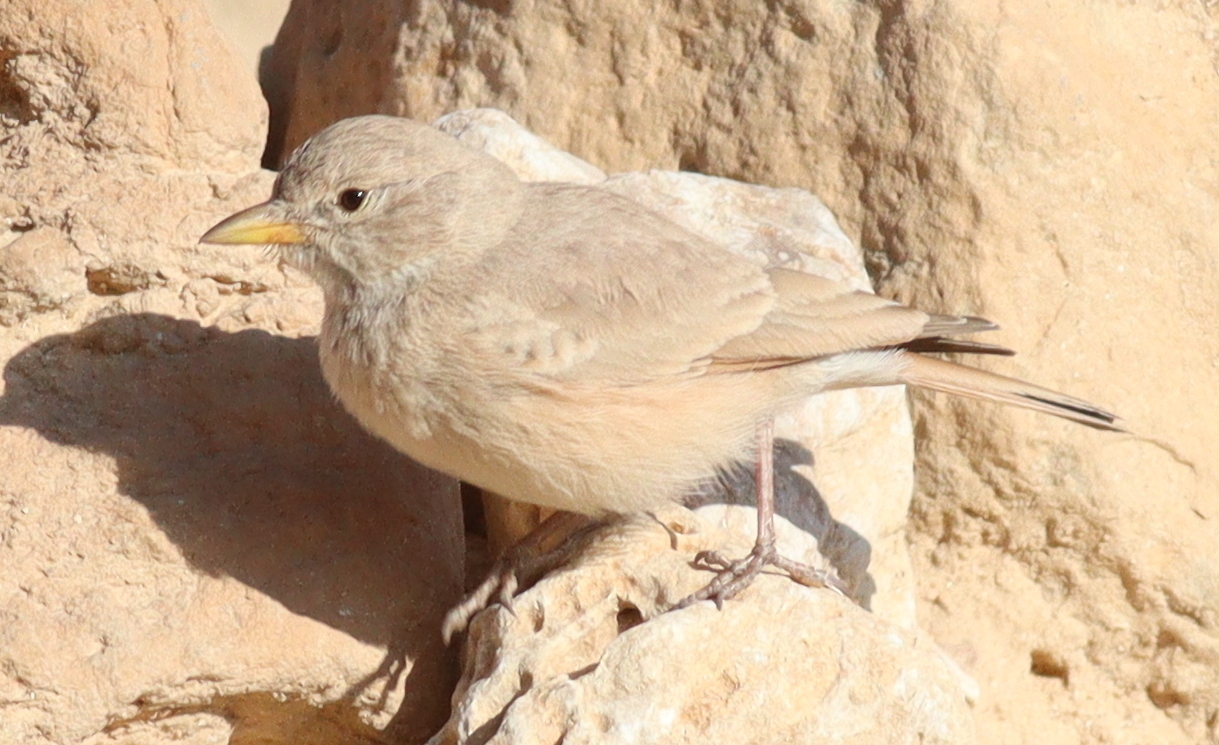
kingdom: Animalia
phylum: Chordata
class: Aves
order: Passeriformes
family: Alaudidae
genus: Ammomanes
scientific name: Ammomanes deserti
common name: Desert lark
